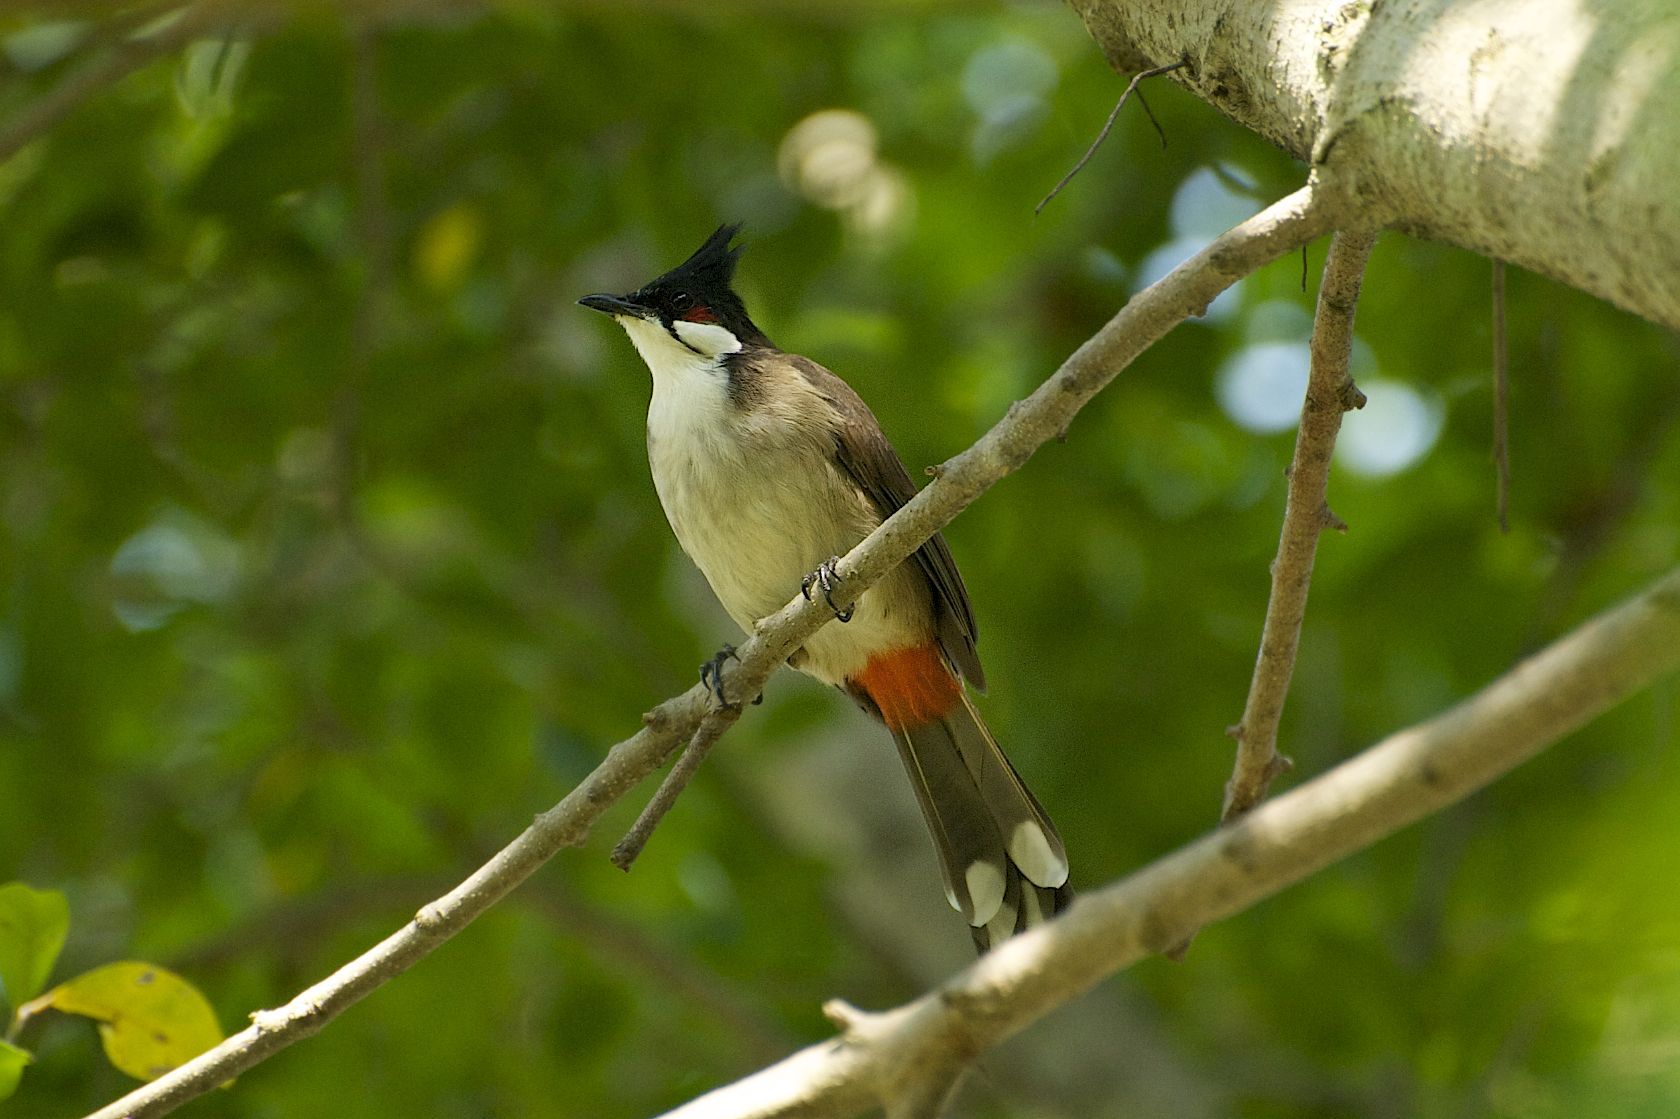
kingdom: Animalia
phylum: Chordata
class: Aves
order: Passeriformes
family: Pycnonotidae
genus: Pycnonotus
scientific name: Pycnonotus jocosus
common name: Red-whiskered bulbul
